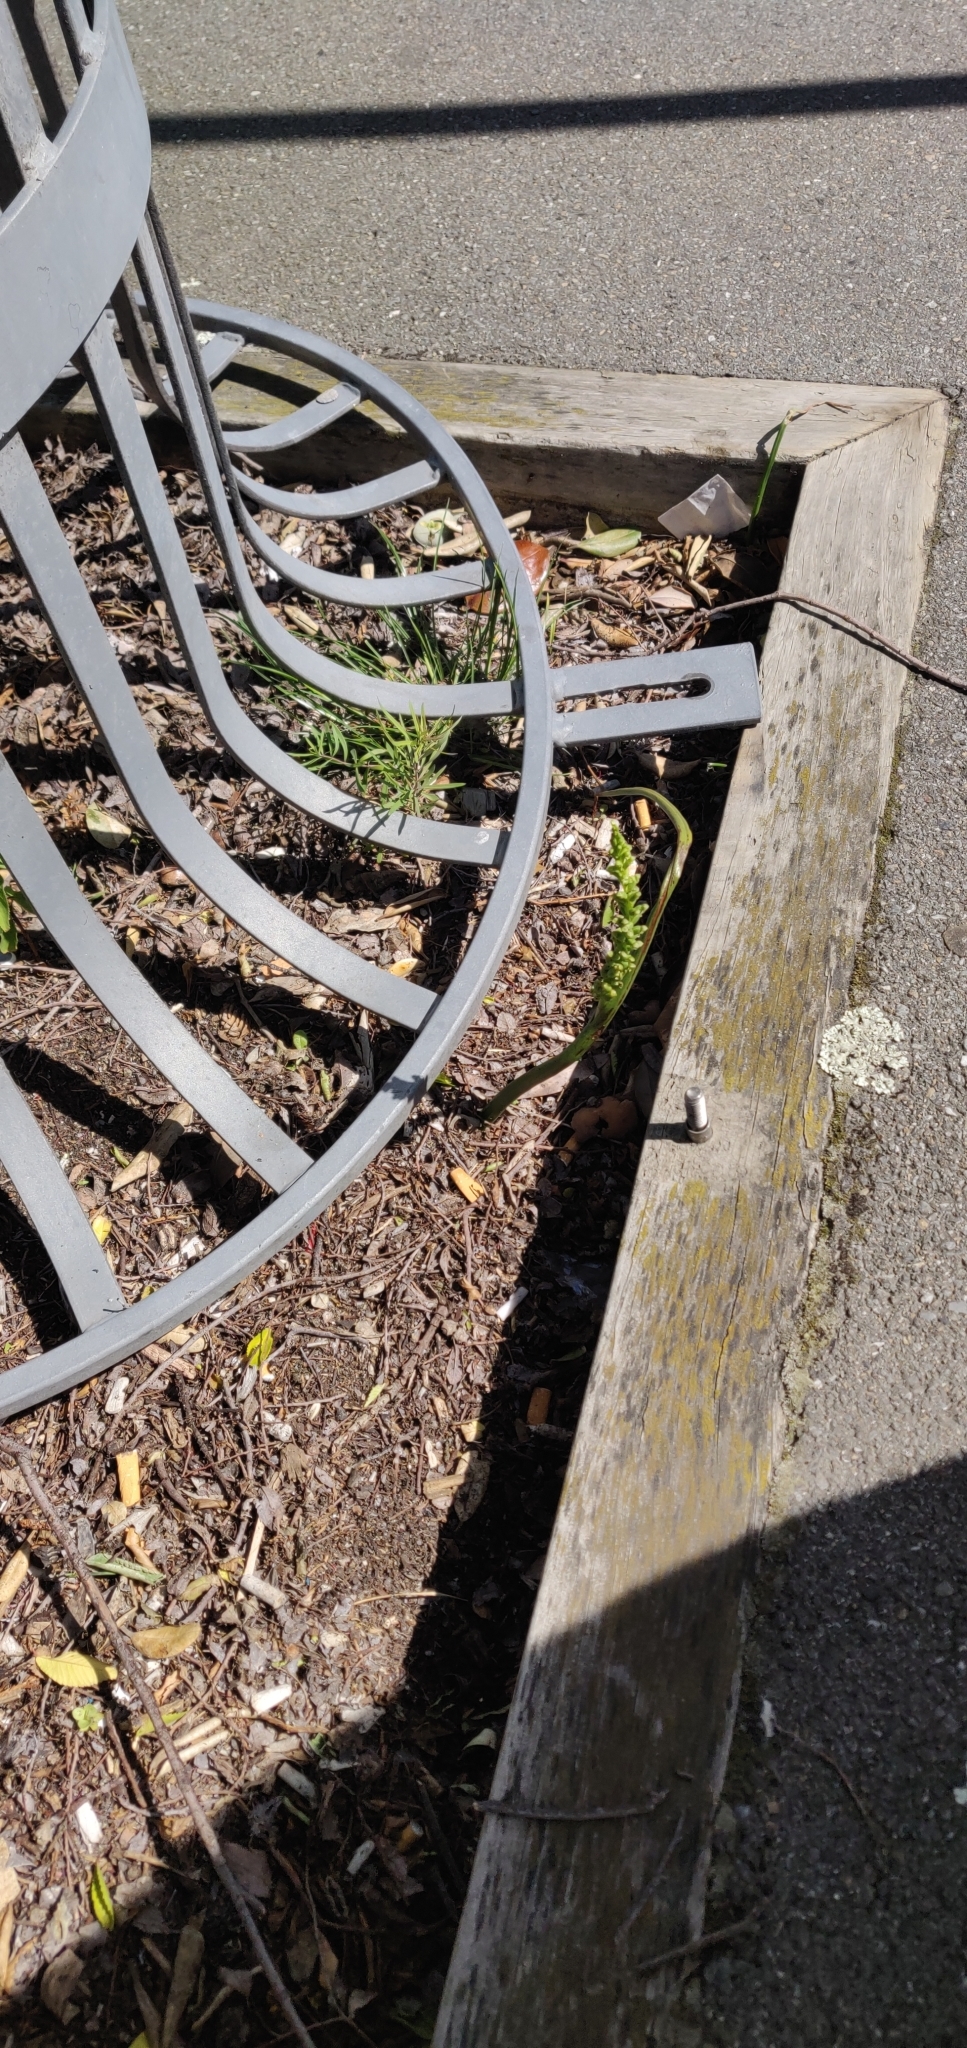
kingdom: Plantae
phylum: Tracheophyta
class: Liliopsida
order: Asparagales
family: Orchidaceae
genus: Microtis
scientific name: Microtis unifolia
